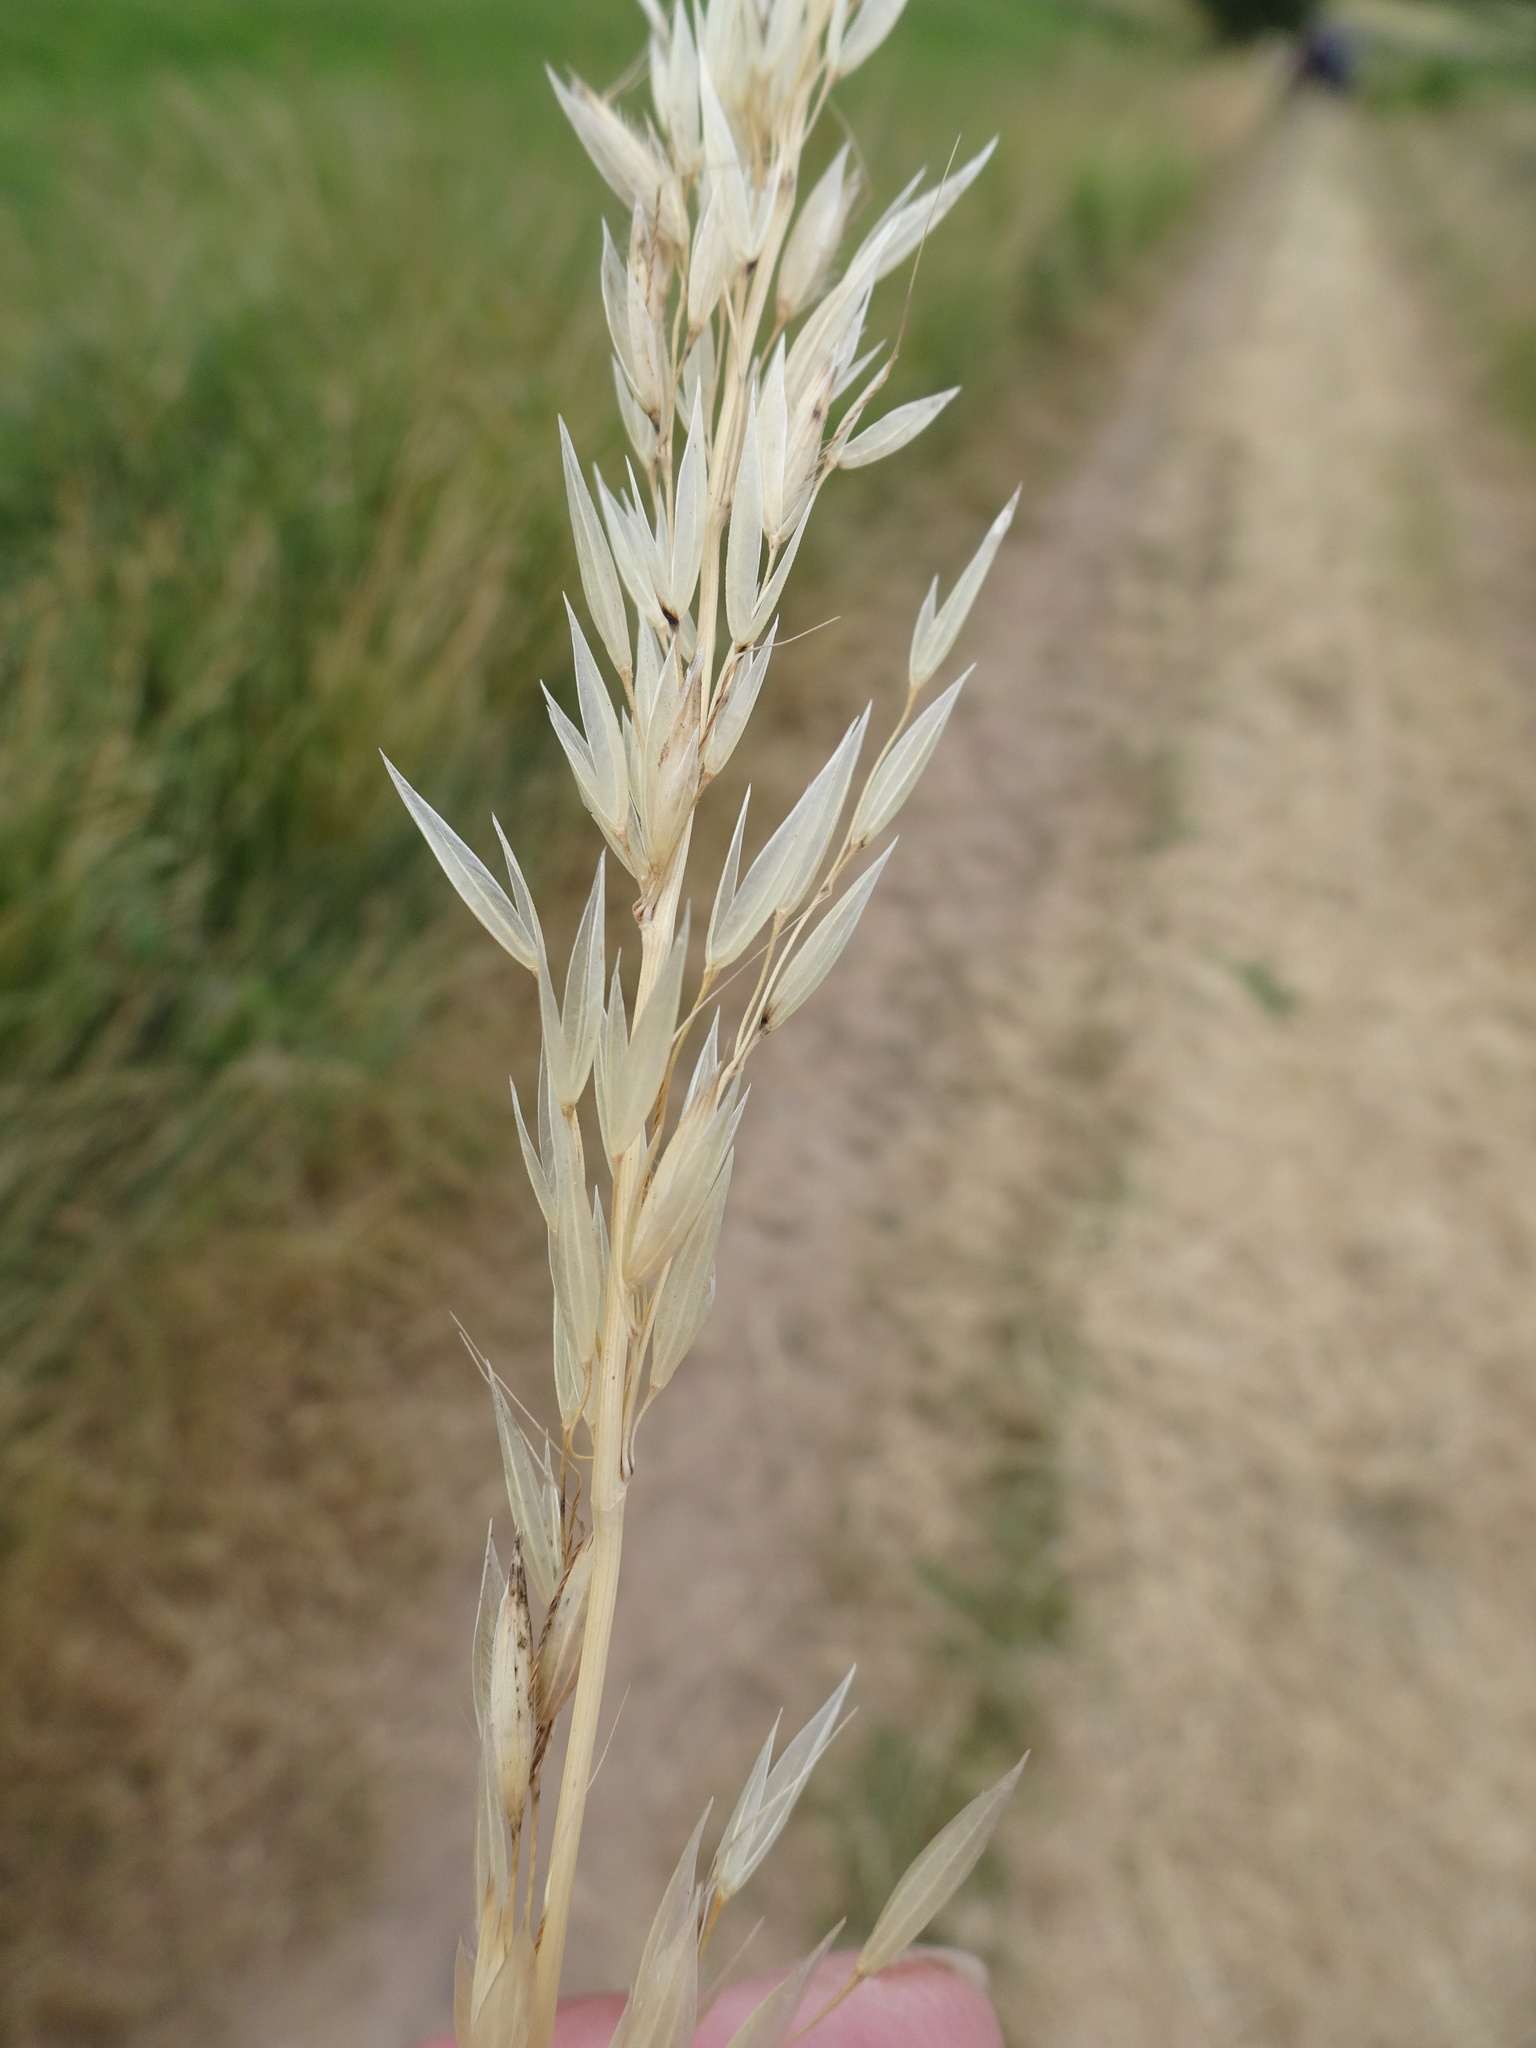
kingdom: Plantae
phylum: Tracheophyta
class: Liliopsida
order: Poales
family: Poaceae
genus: Arrhenatherum
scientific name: Arrhenatherum elatius
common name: Tall oatgrass
